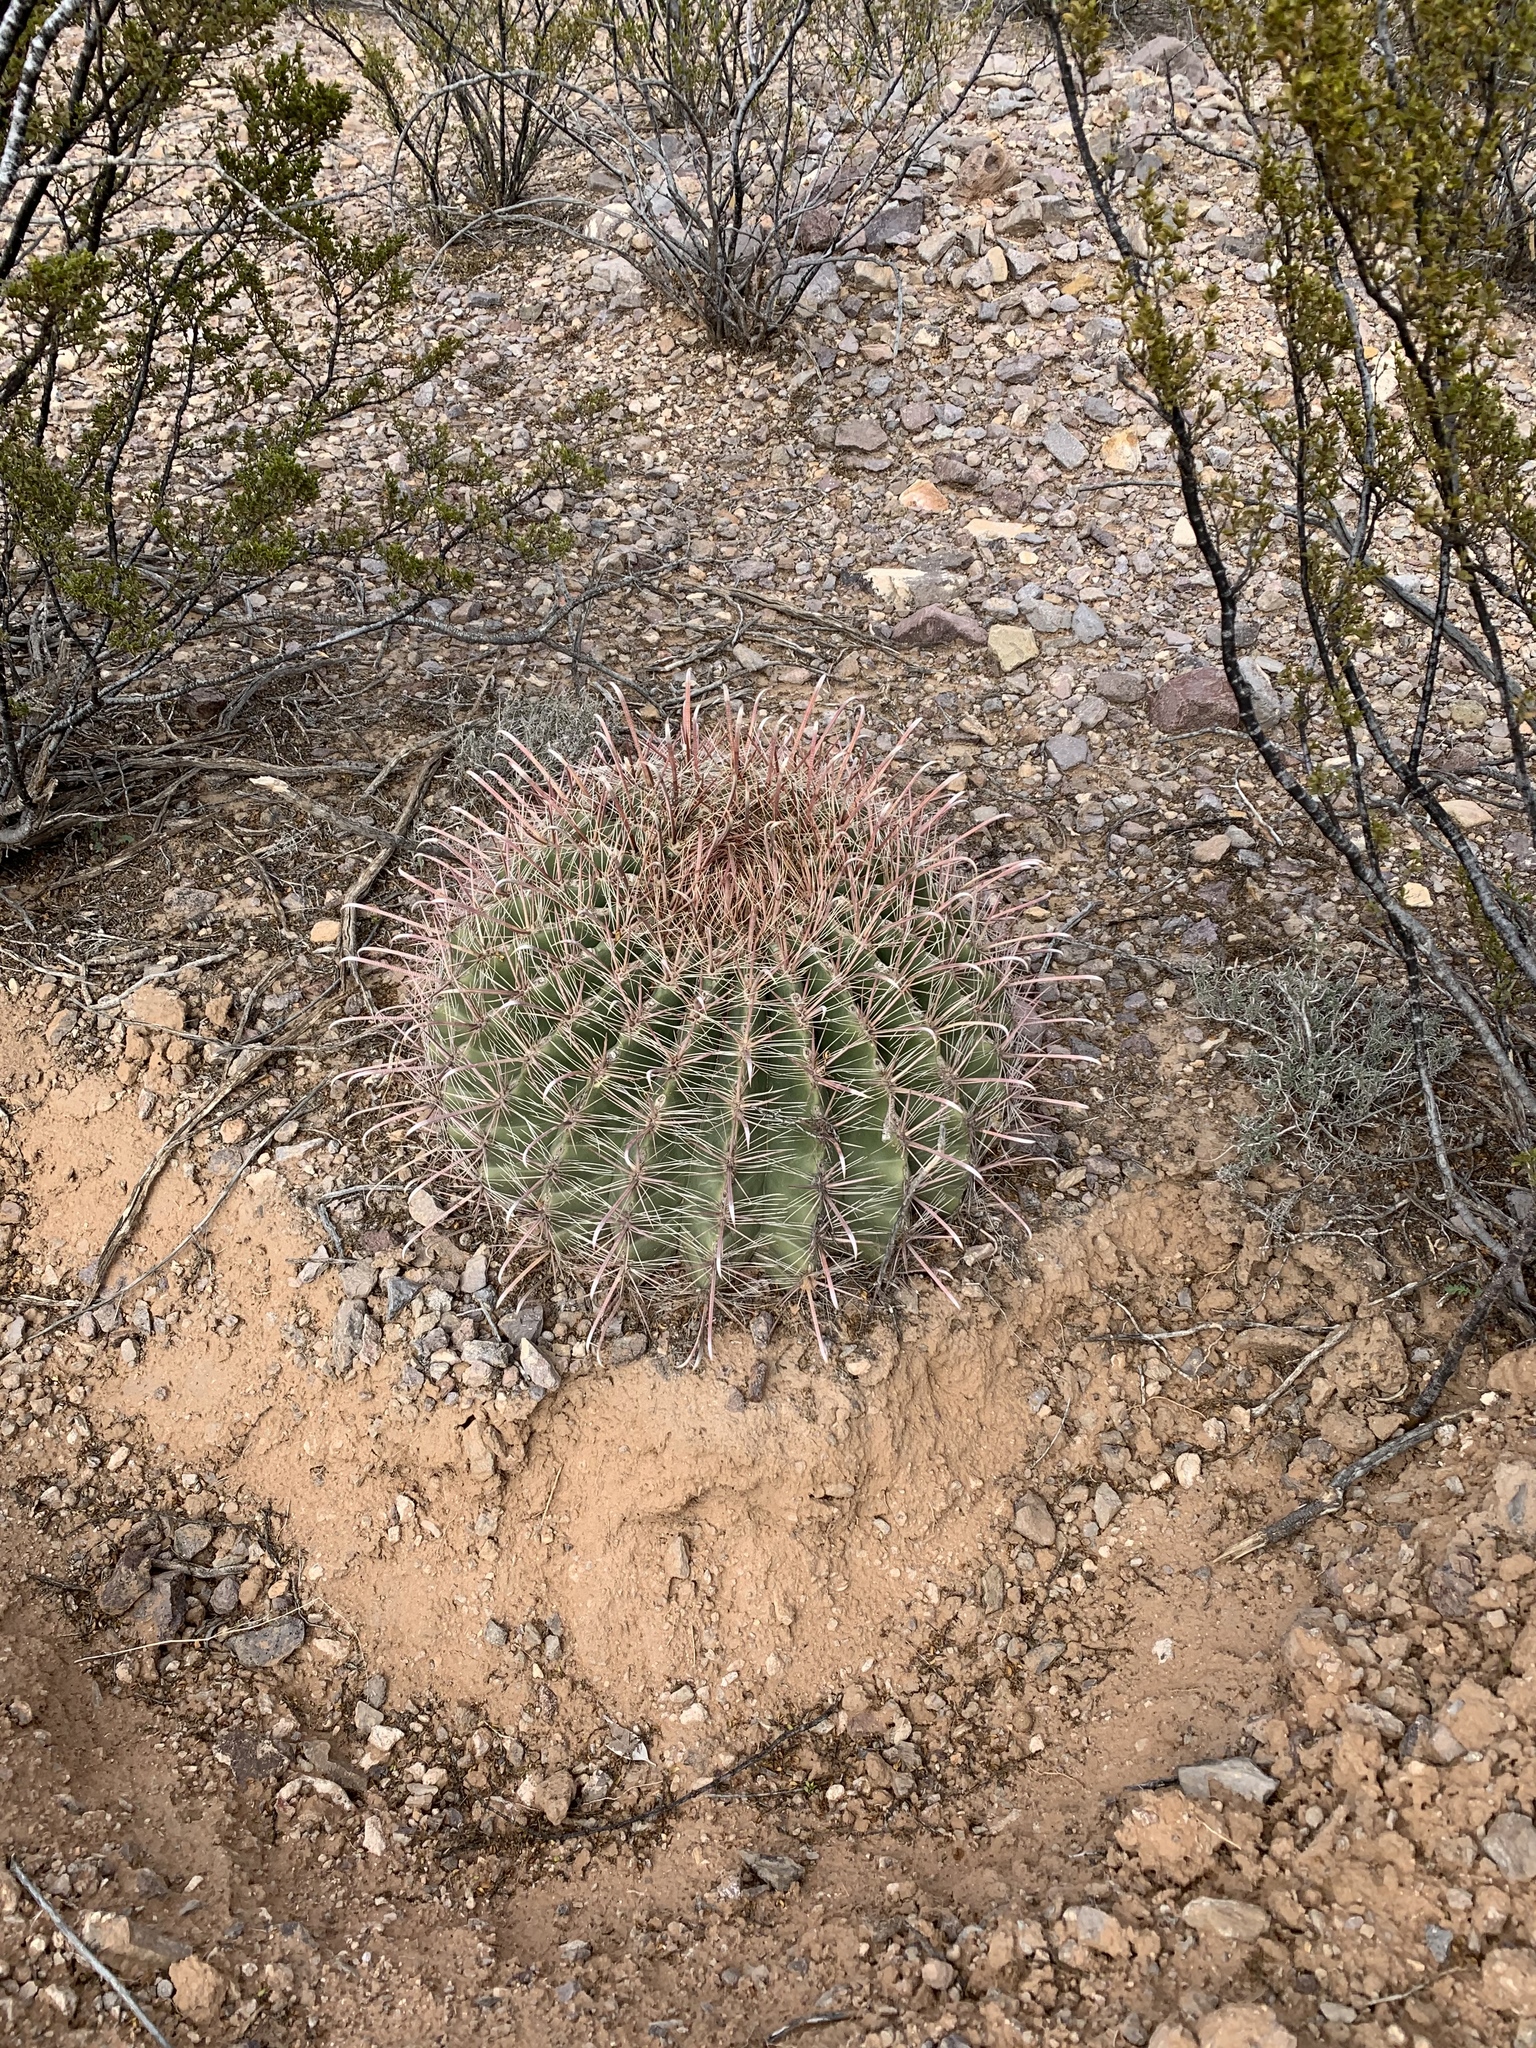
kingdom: Plantae
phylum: Tracheophyta
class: Magnoliopsida
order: Caryophyllales
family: Cactaceae
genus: Ferocactus
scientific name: Ferocactus wislizeni
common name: Candy barrel cactus
